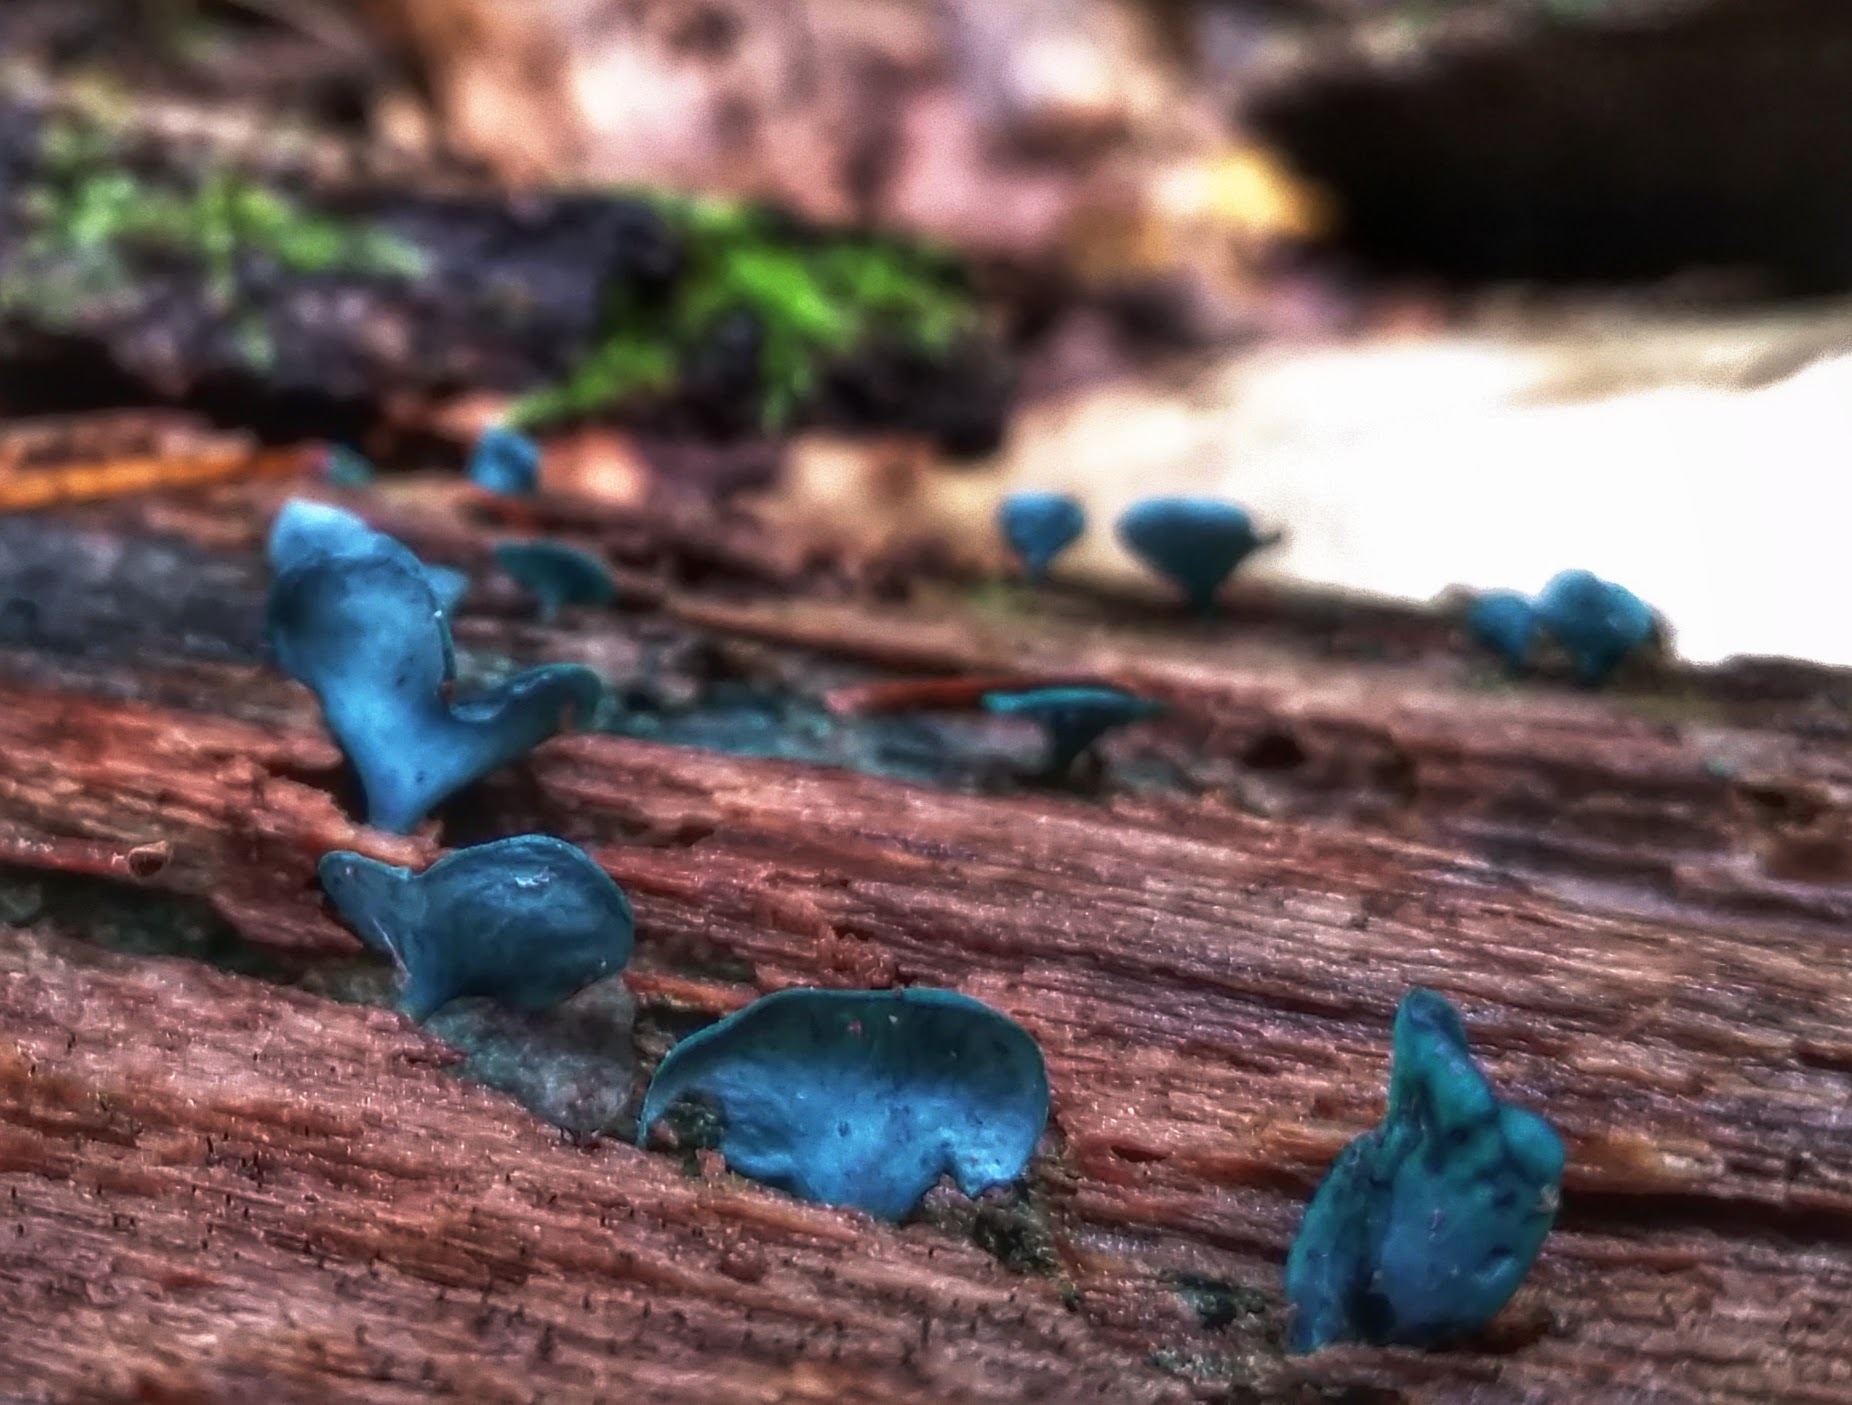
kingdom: Fungi
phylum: Ascomycota
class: Leotiomycetes
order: Helotiales
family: Chlorociboriaceae
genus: Chlorociboria
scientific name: Chlorociboria
